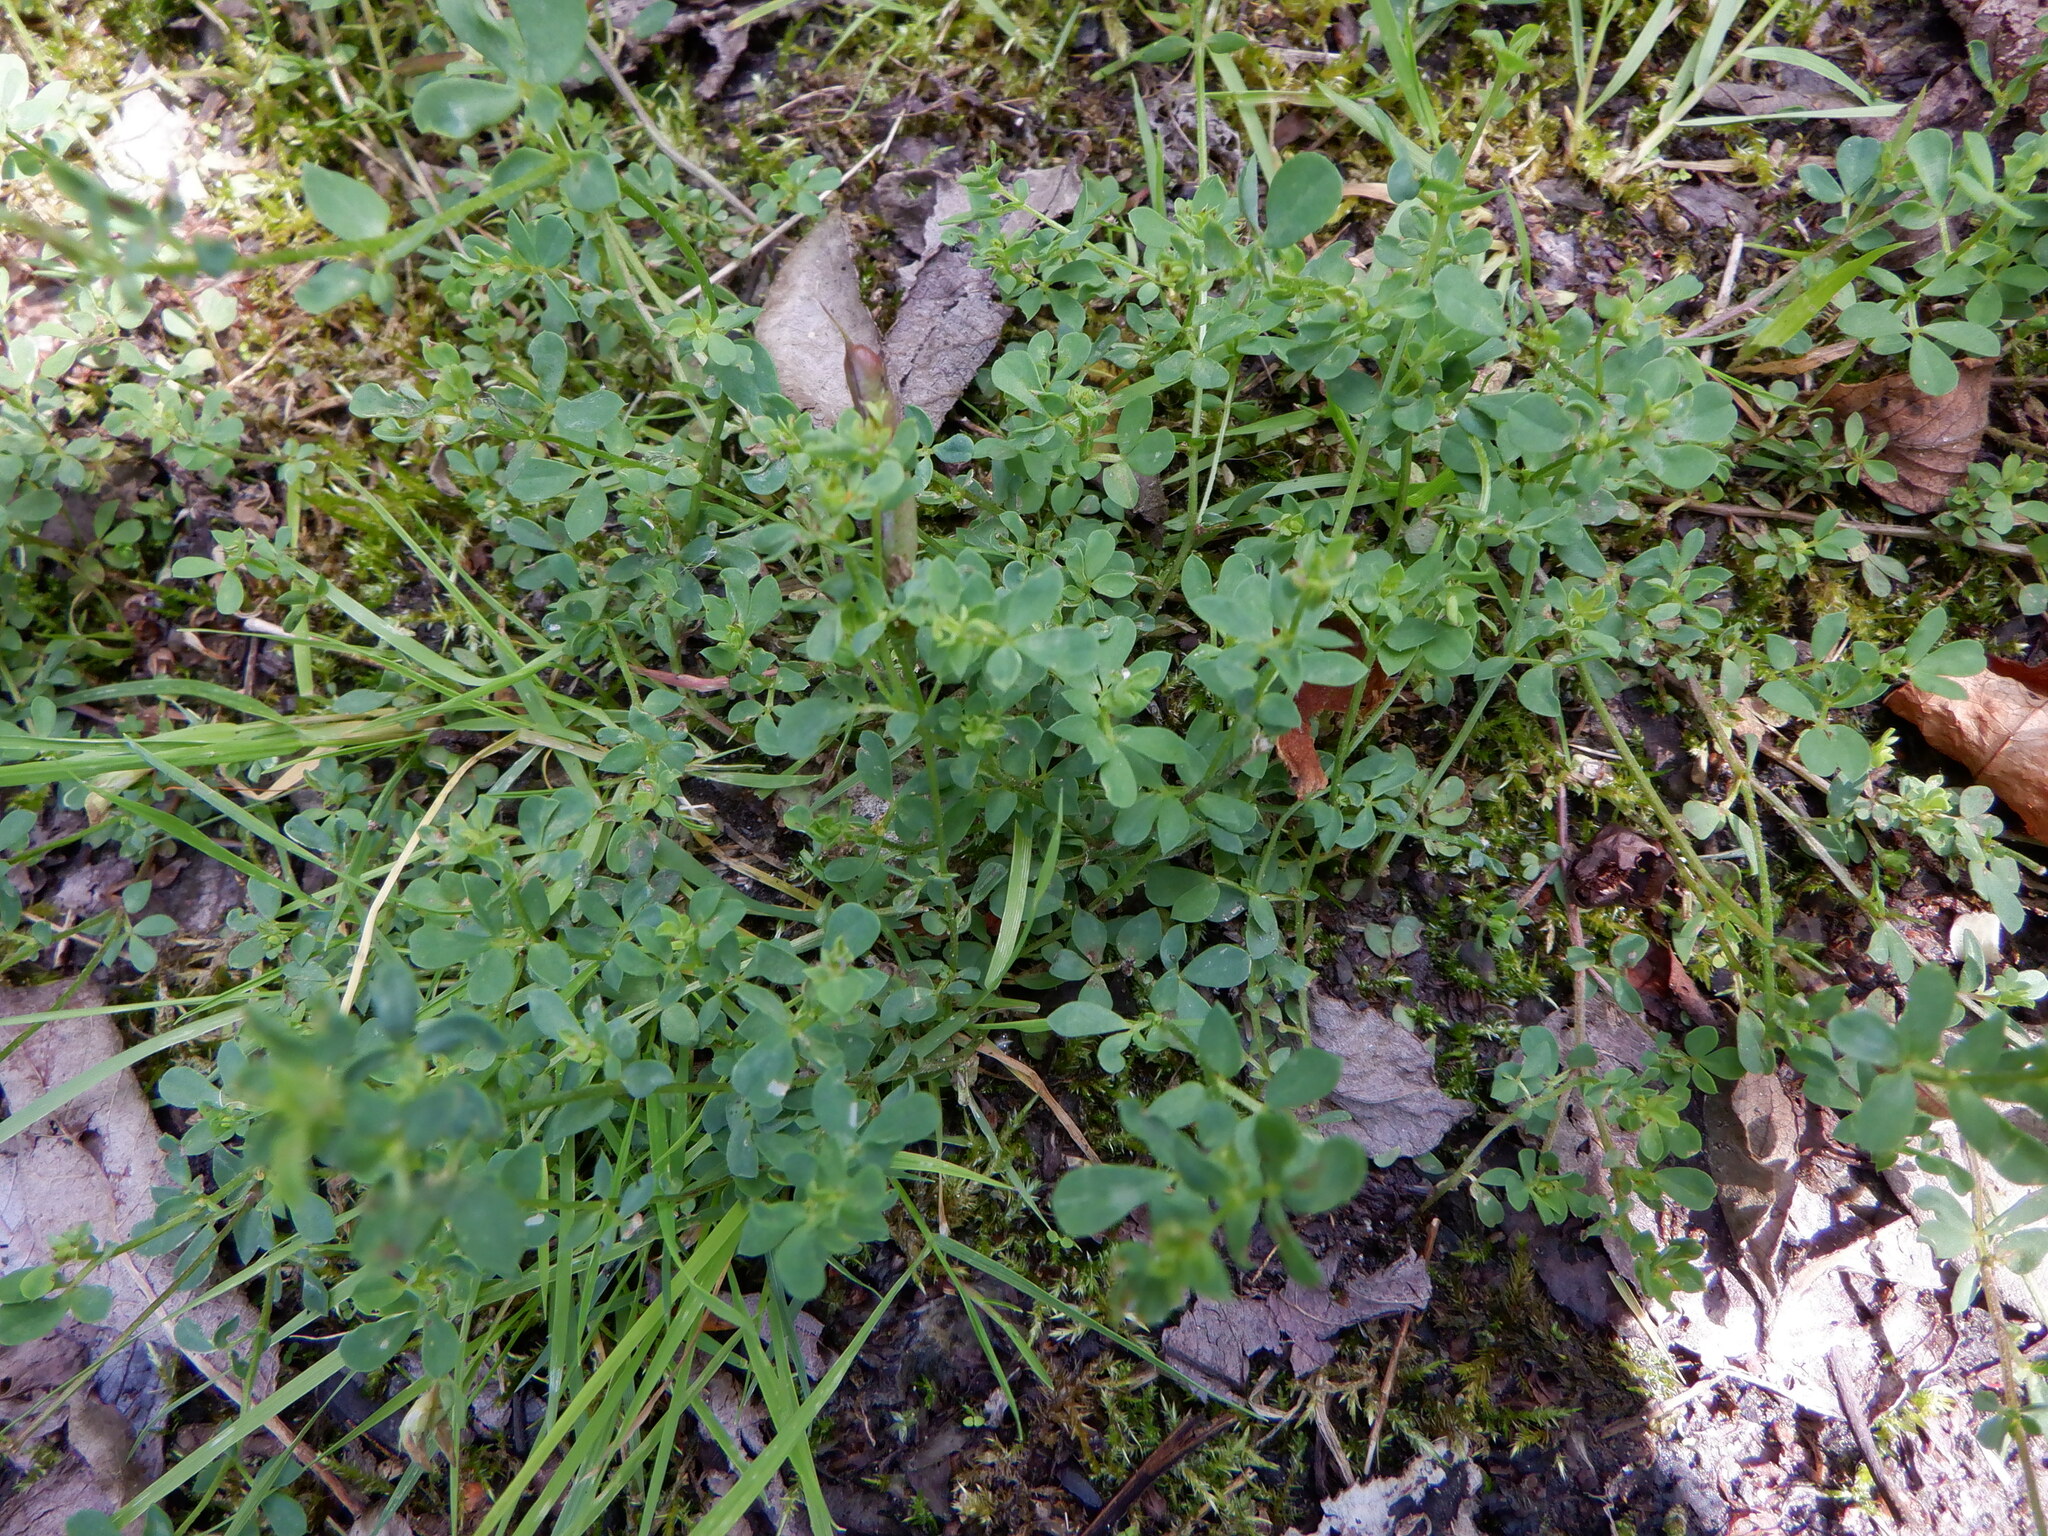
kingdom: Plantae
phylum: Tracheophyta
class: Magnoliopsida
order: Fabales
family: Fabaceae
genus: Lotus
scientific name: Lotus corniculatus
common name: Common bird's-foot-trefoil
